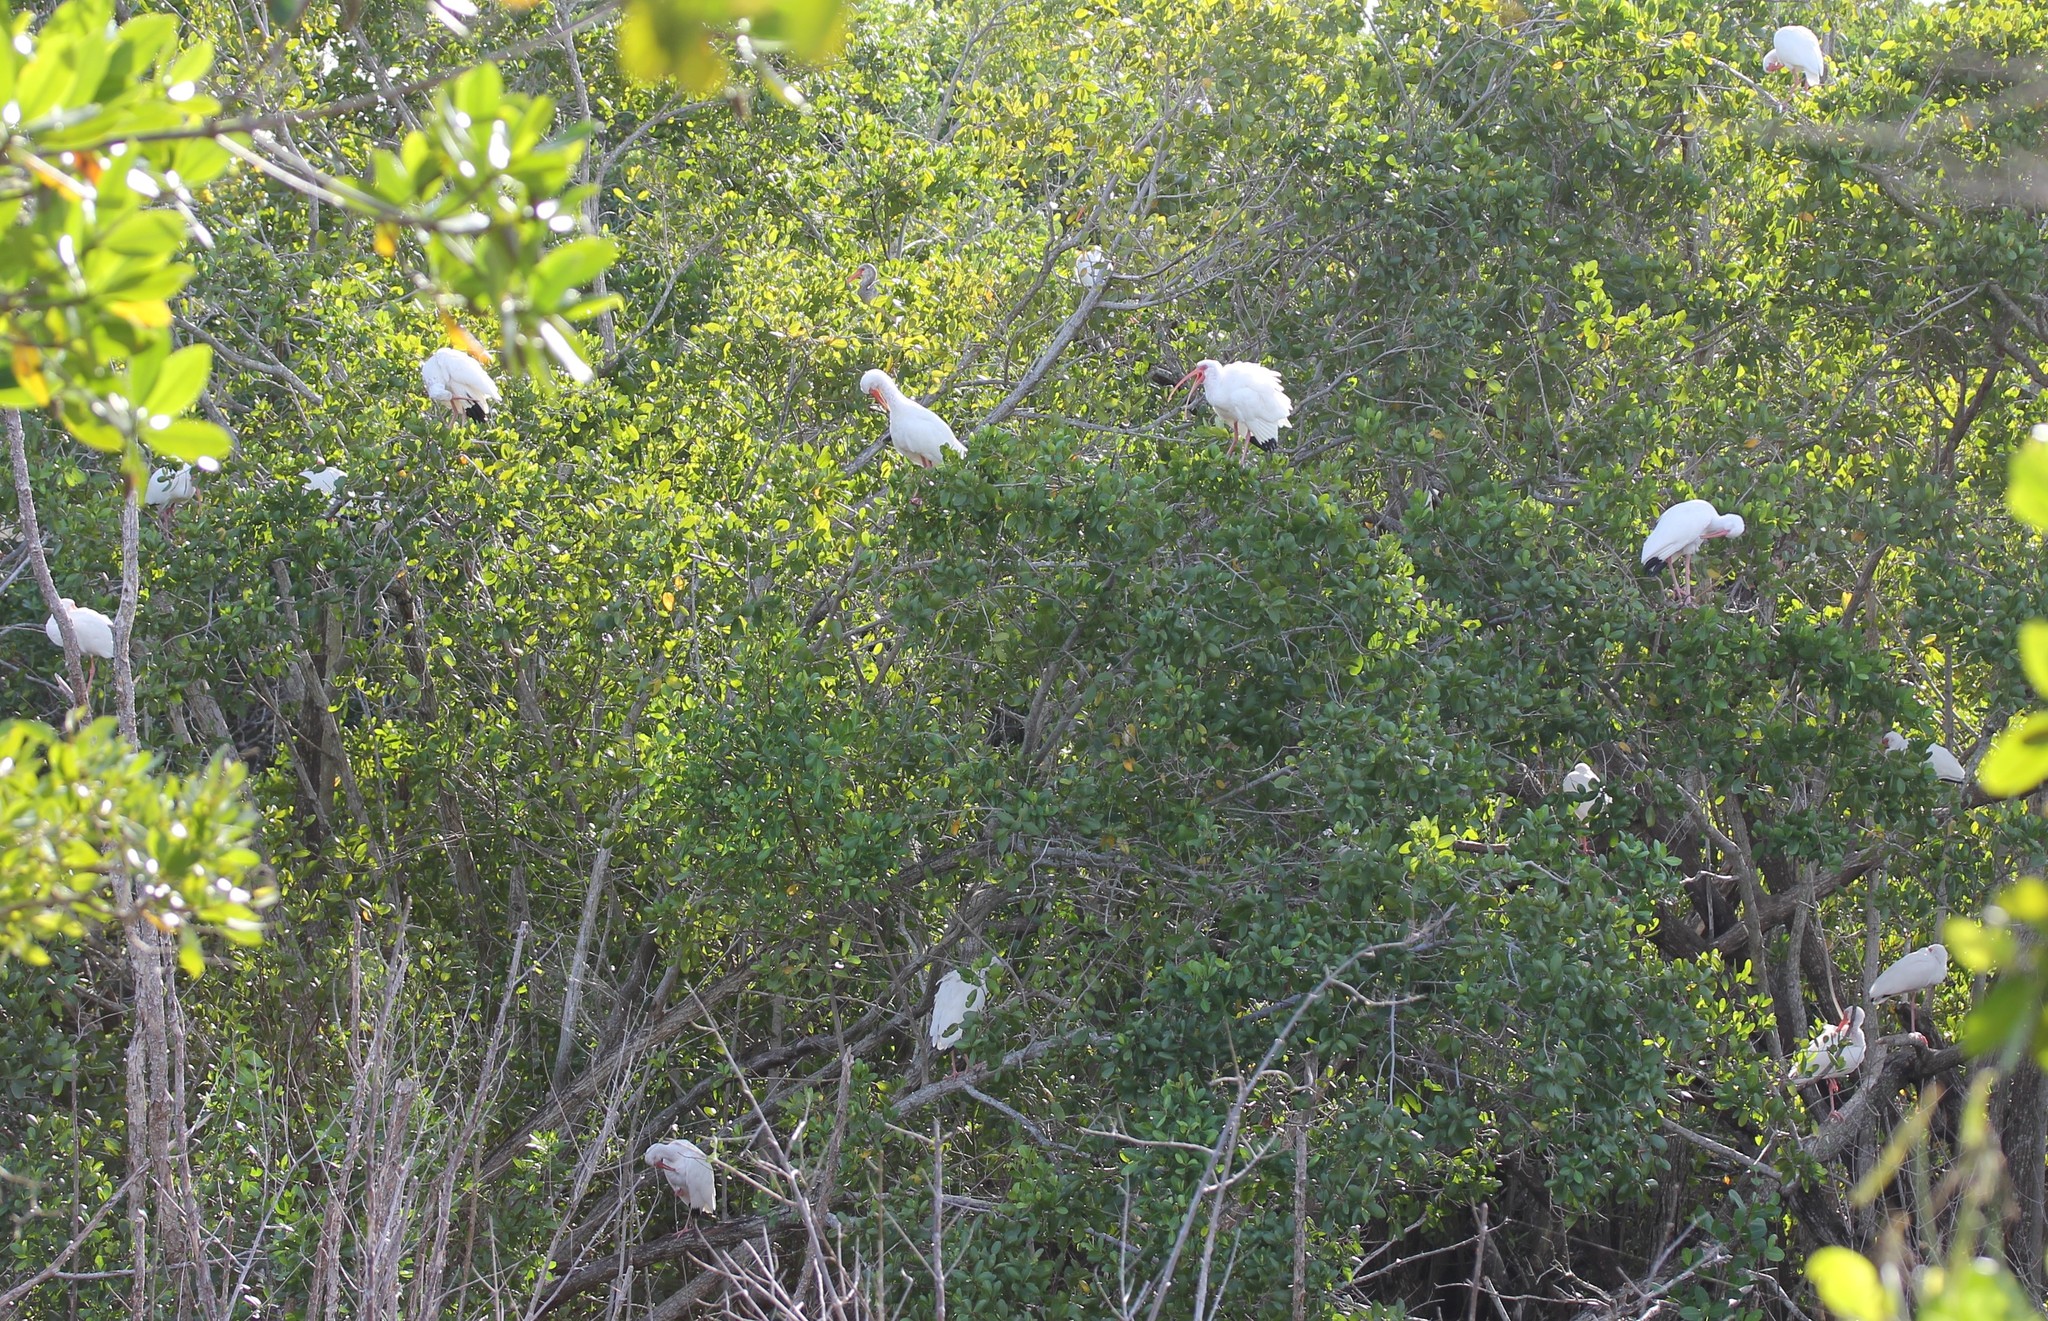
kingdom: Animalia
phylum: Chordata
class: Aves
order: Pelecaniformes
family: Threskiornithidae
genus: Eudocimus
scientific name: Eudocimus albus
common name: White ibis
